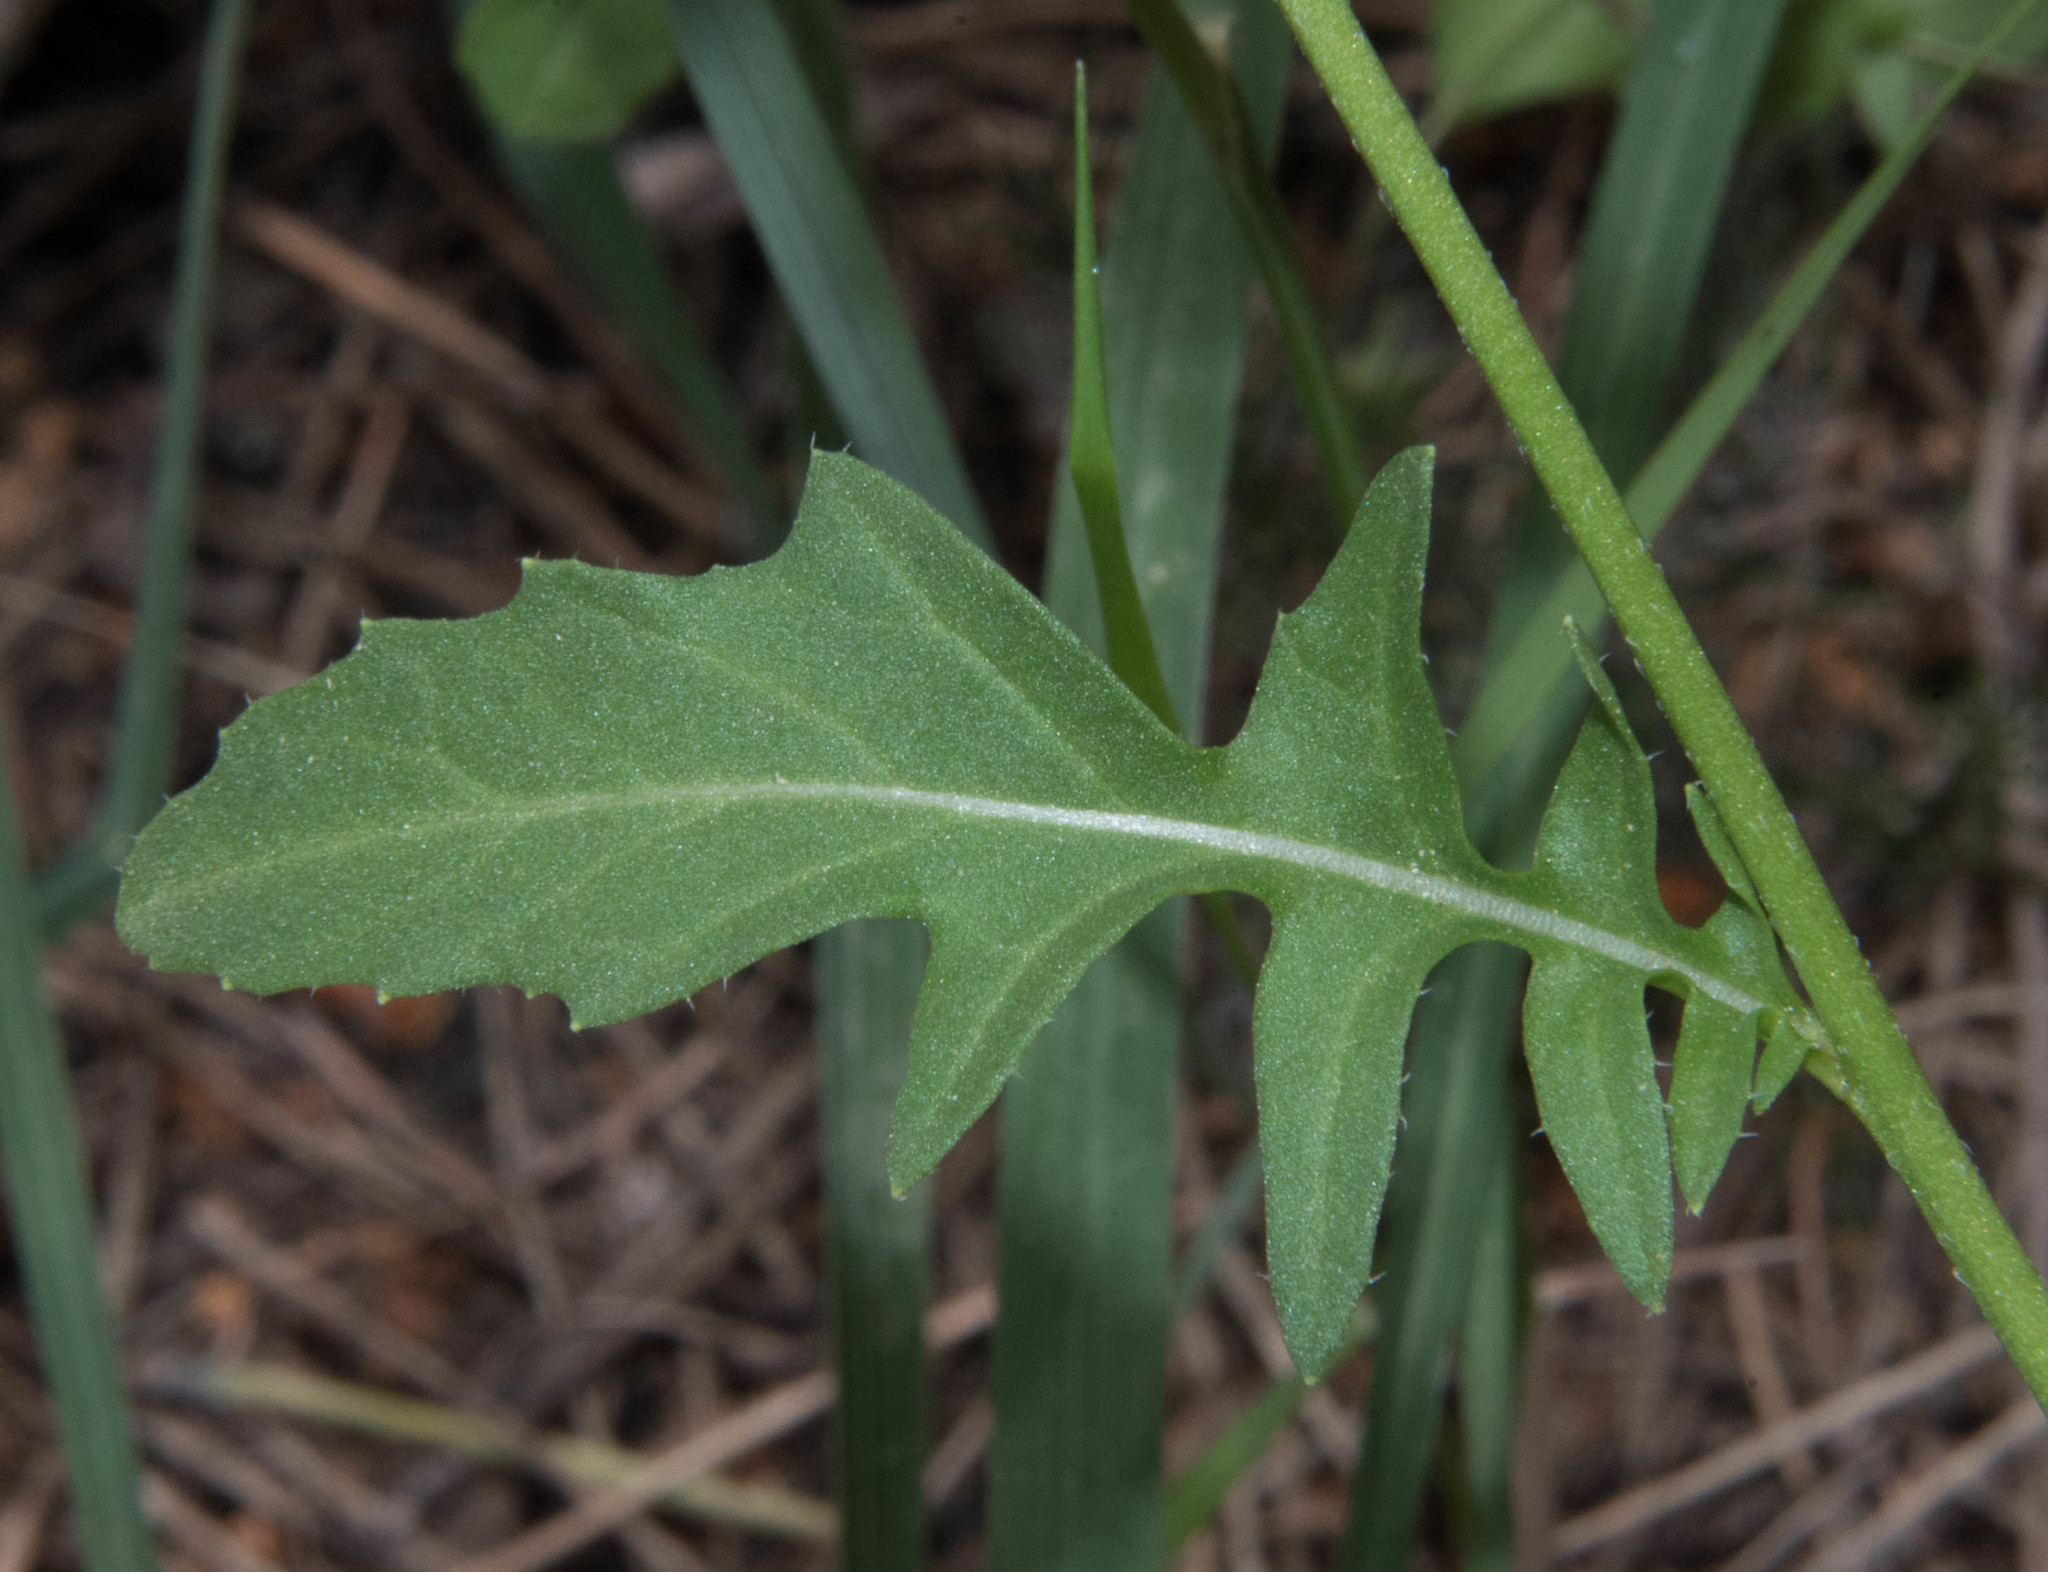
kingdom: Plantae
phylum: Tracheophyta
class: Magnoliopsida
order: Brassicales
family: Brassicaceae
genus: Eruca
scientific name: Eruca vesicaria
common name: Garden rocket
